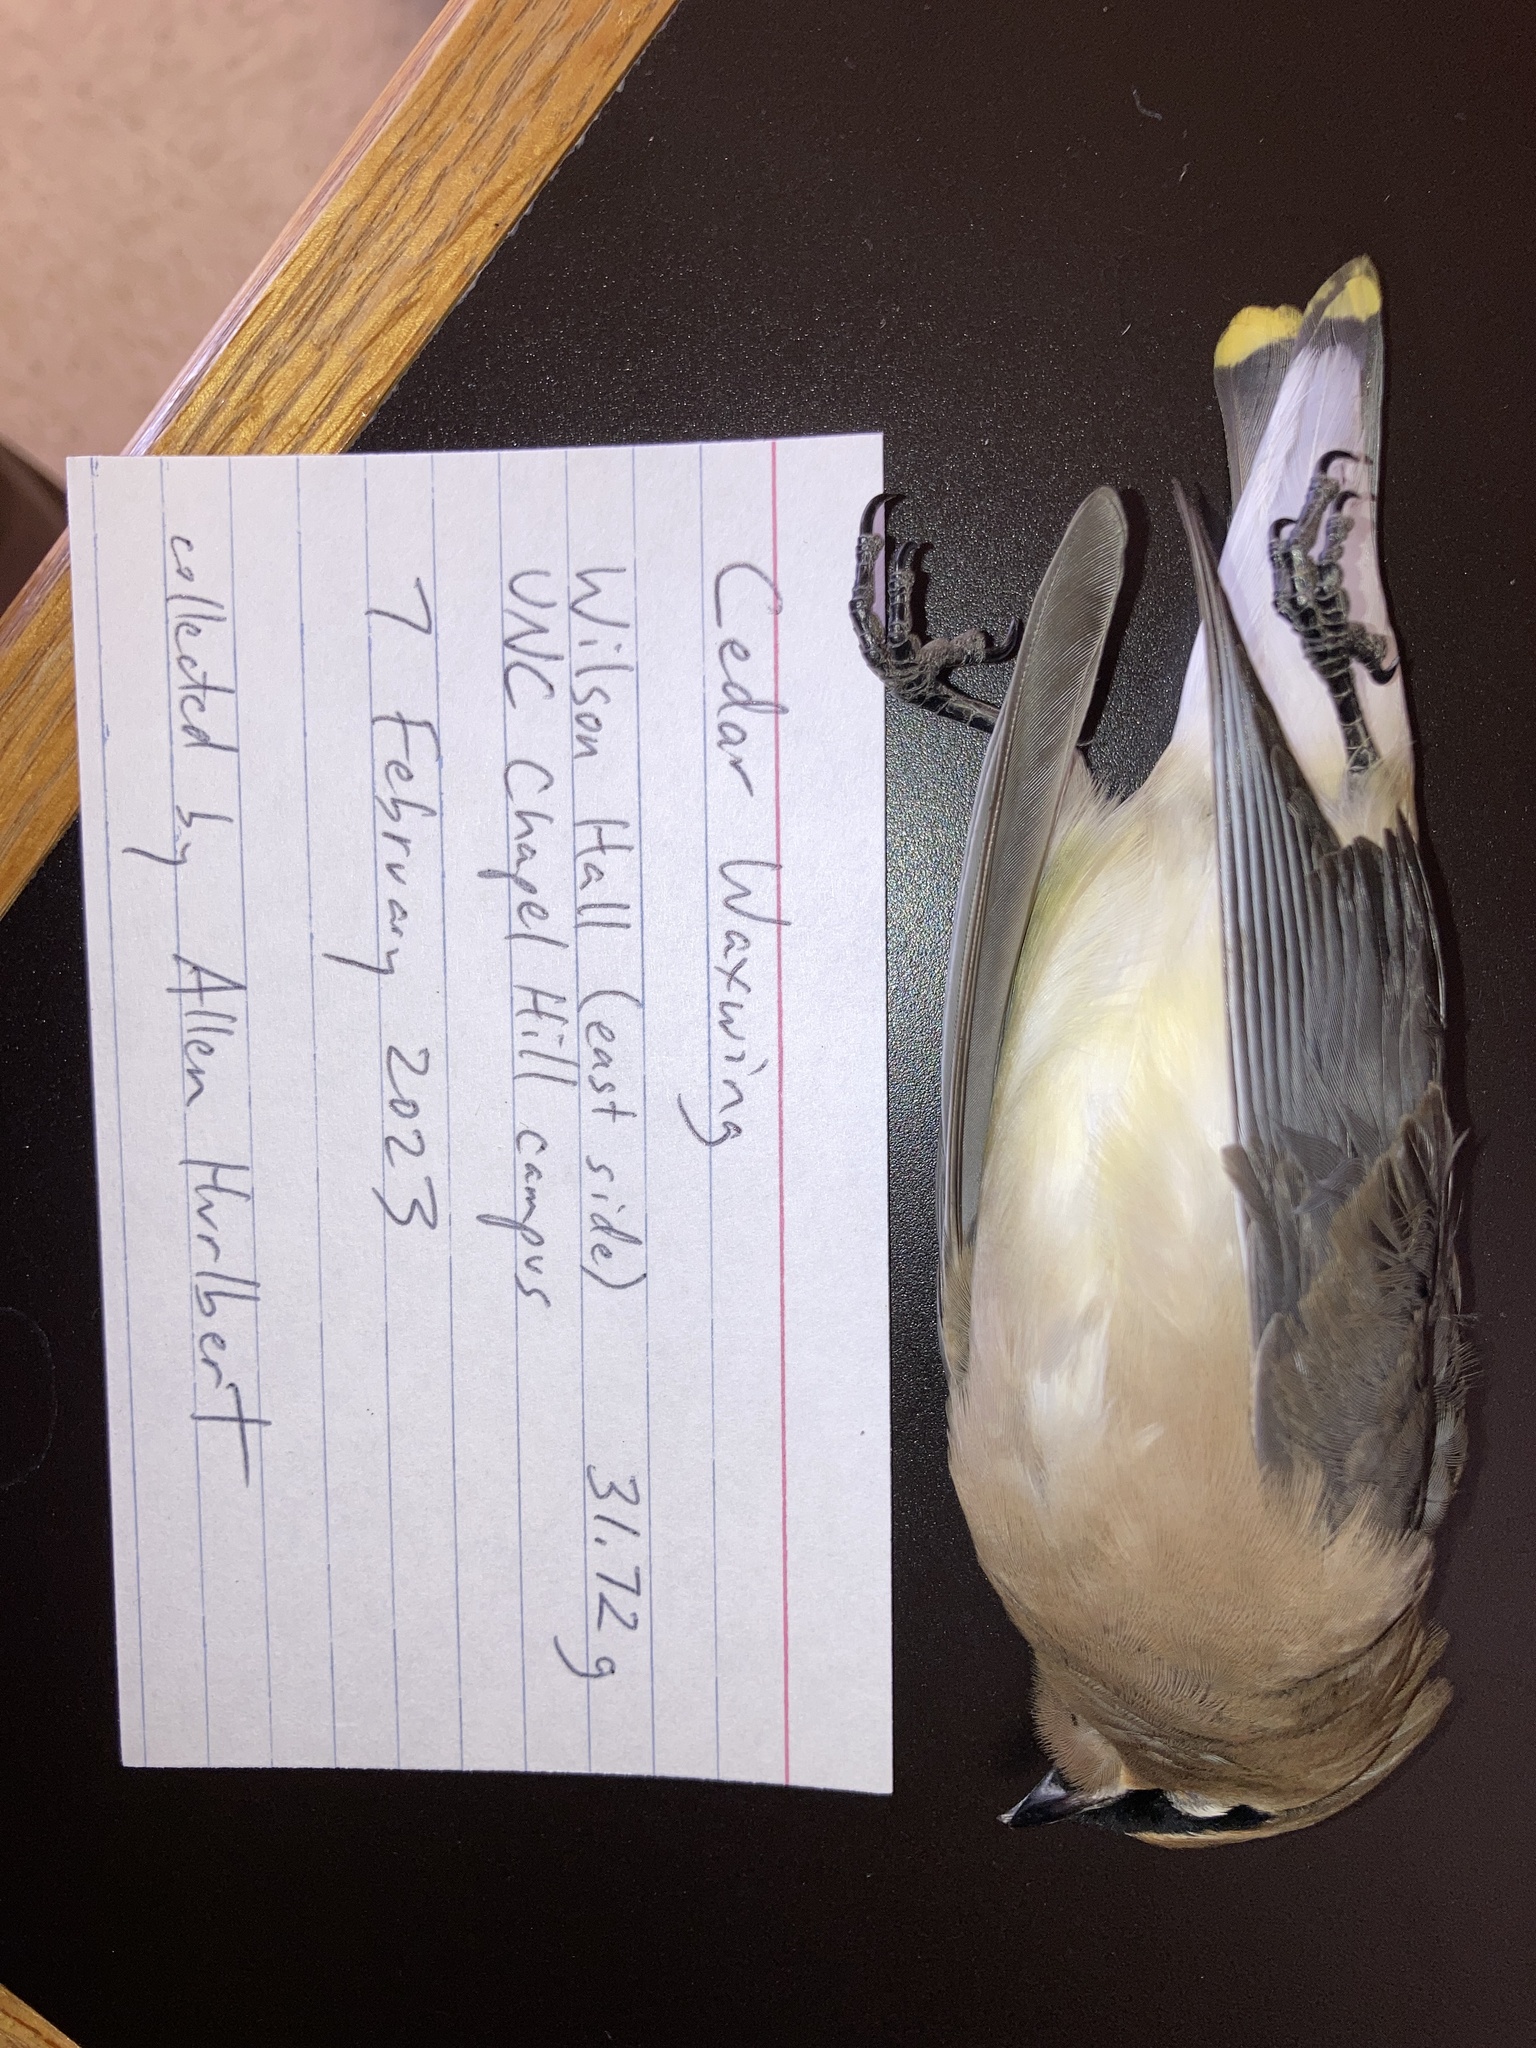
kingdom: Animalia
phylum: Chordata
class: Aves
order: Passeriformes
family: Bombycillidae
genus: Bombycilla
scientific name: Bombycilla cedrorum
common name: Cedar waxwing
